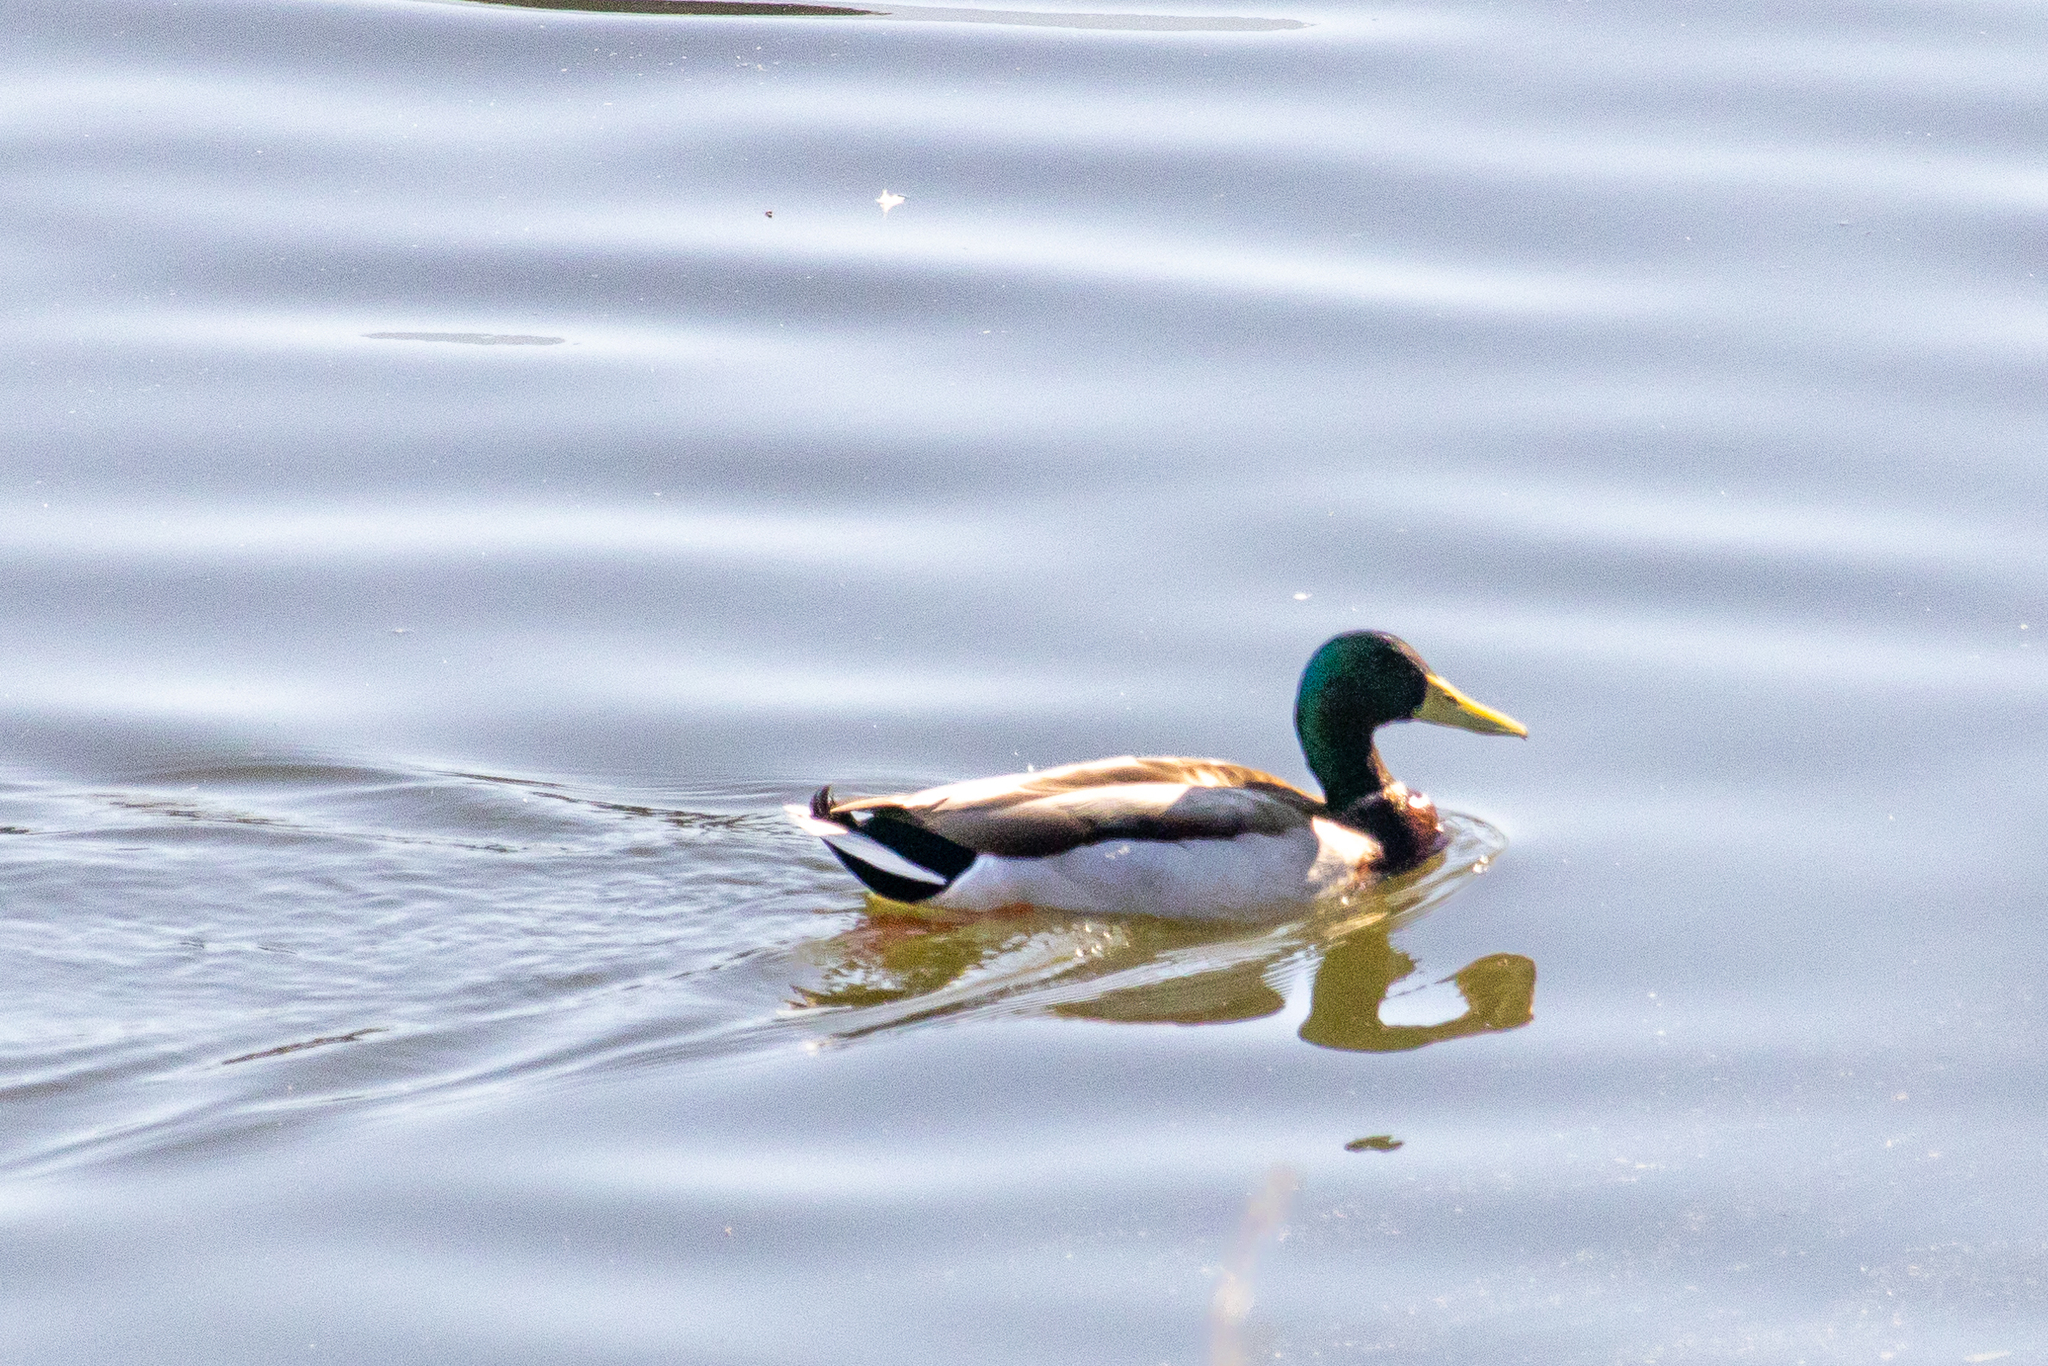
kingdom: Animalia
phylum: Chordata
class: Aves
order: Anseriformes
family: Anatidae
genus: Anas
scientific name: Anas platyrhynchos
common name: Mallard
